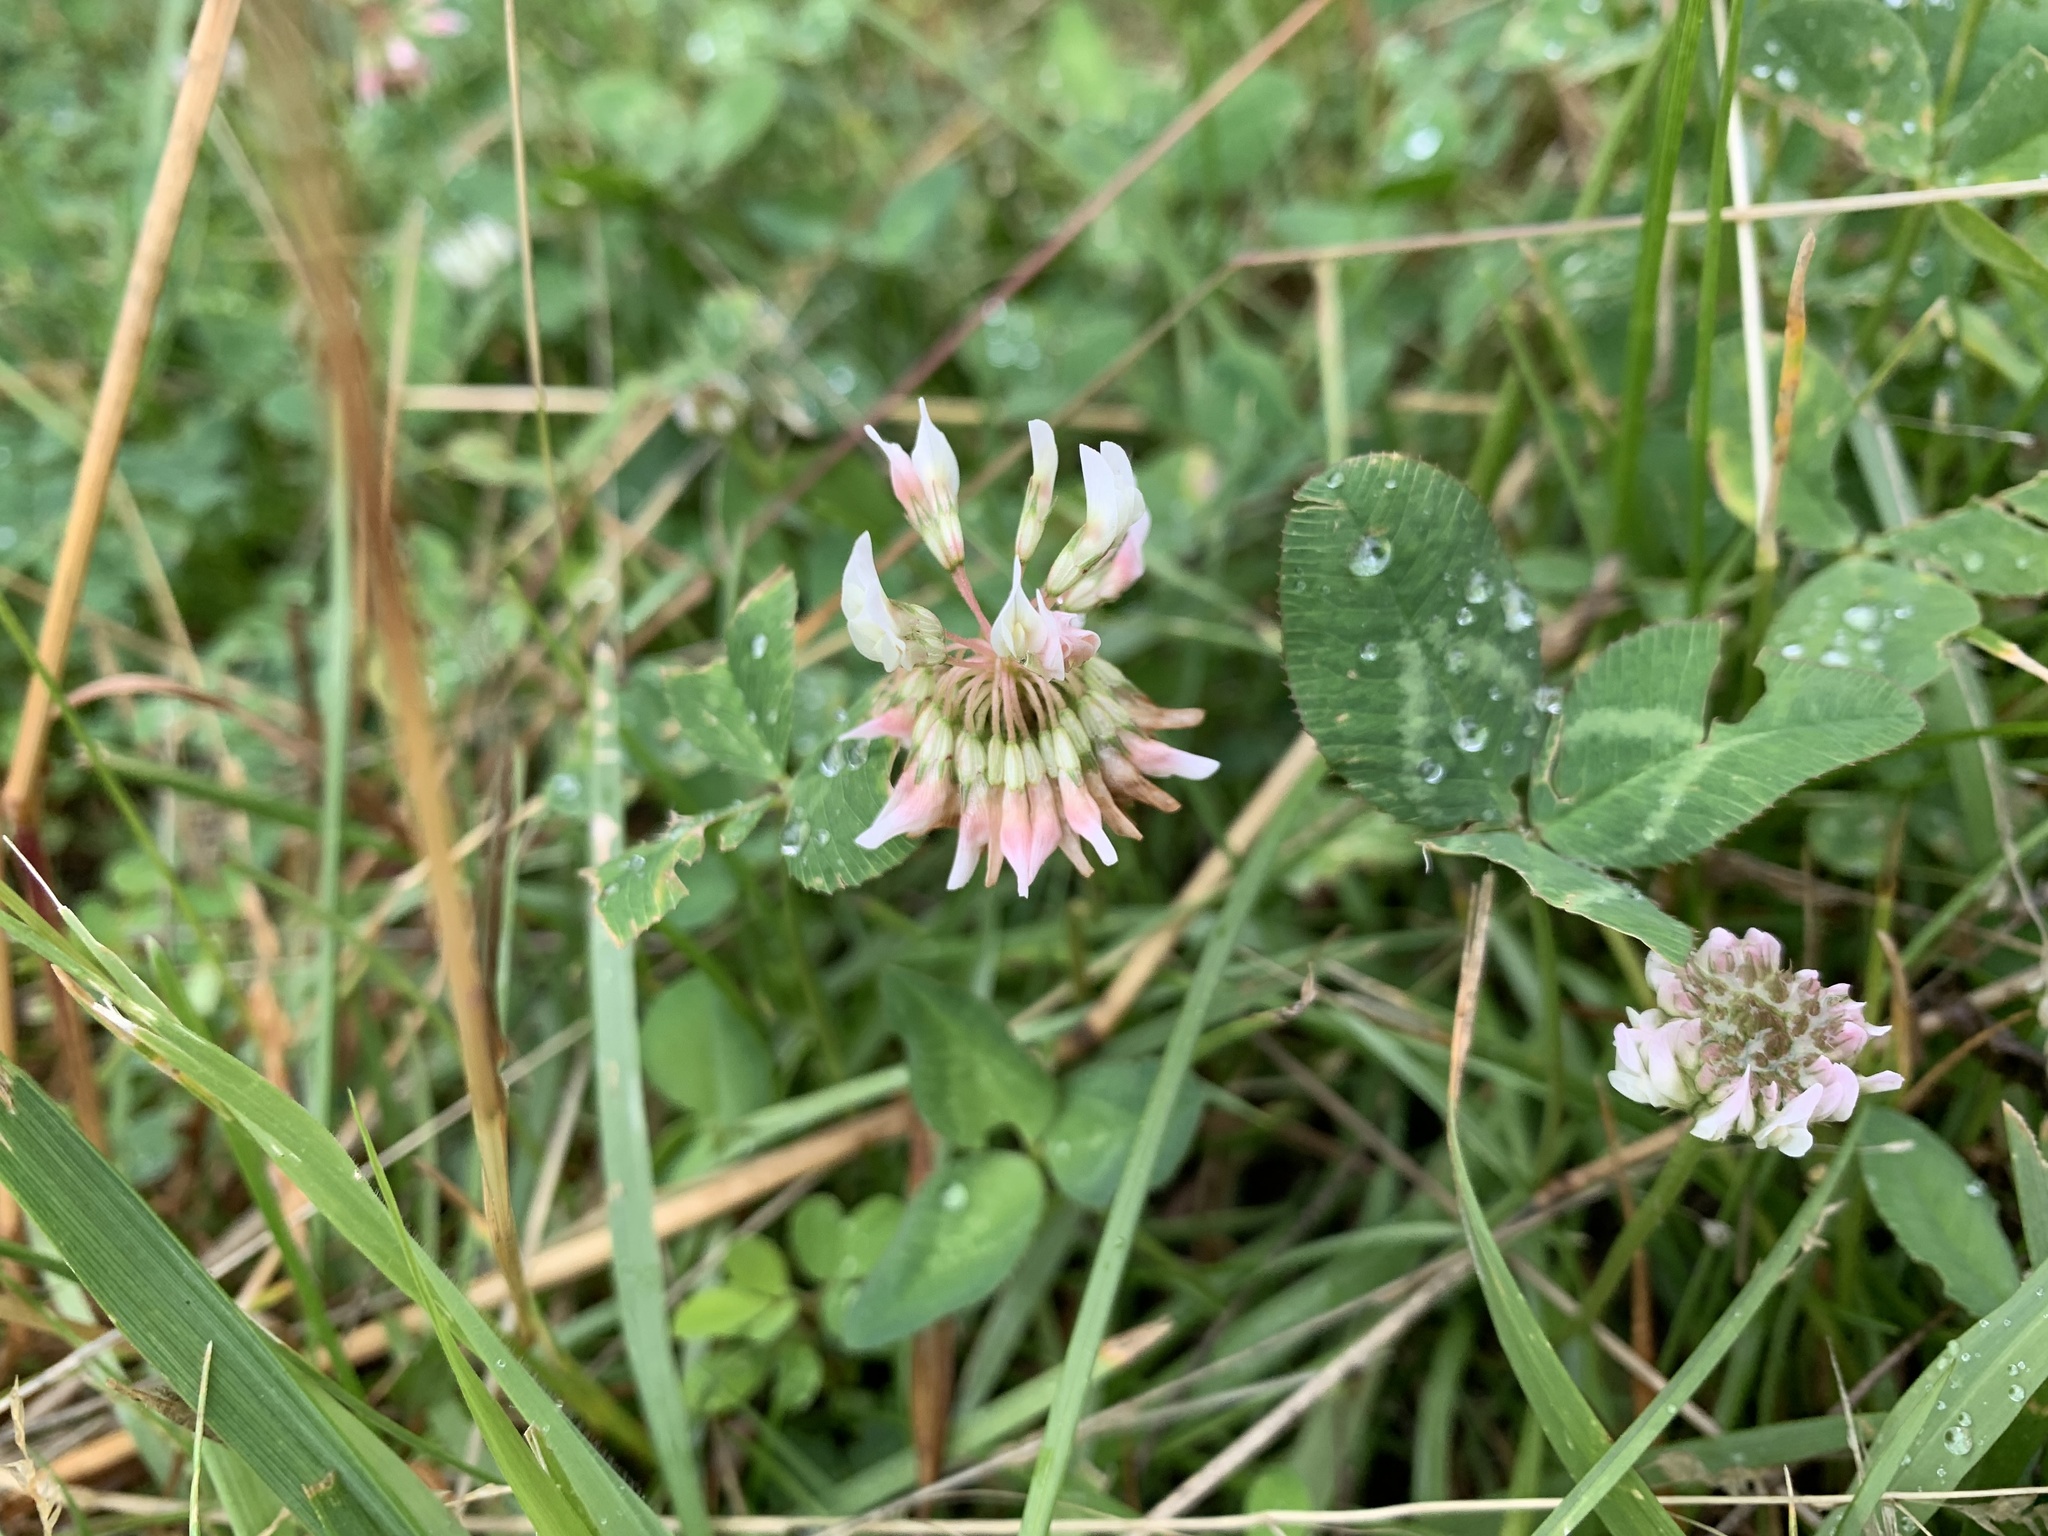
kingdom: Plantae
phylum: Tracheophyta
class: Magnoliopsida
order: Fabales
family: Fabaceae
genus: Trifolium
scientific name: Trifolium repens
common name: White clover
